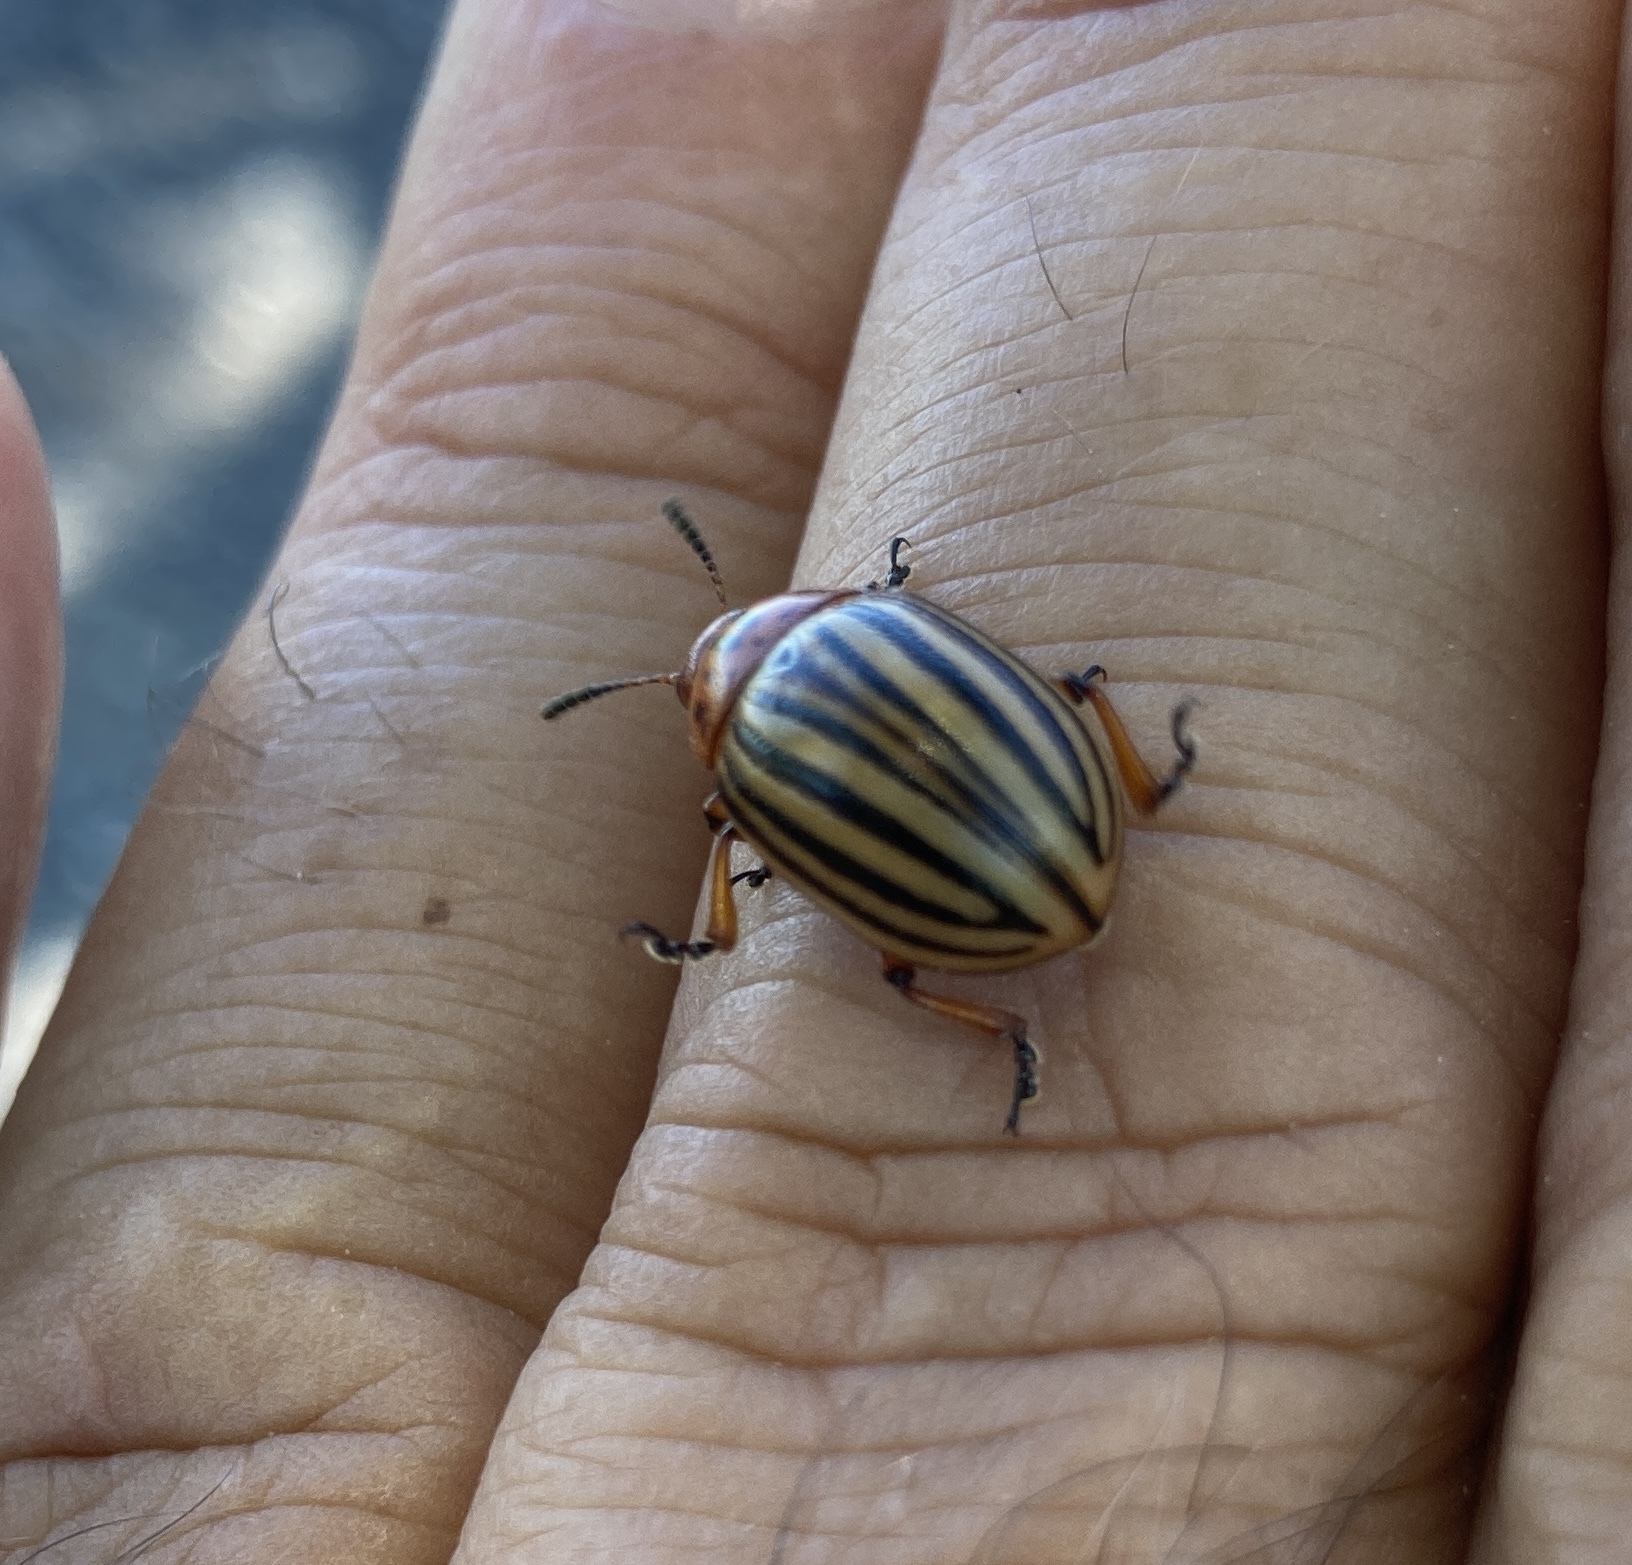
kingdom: Animalia
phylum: Arthropoda
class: Insecta
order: Coleoptera
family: Chrysomelidae
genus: Leptinotarsa
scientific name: Leptinotarsa decemlineata
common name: Colorado potato beetle
